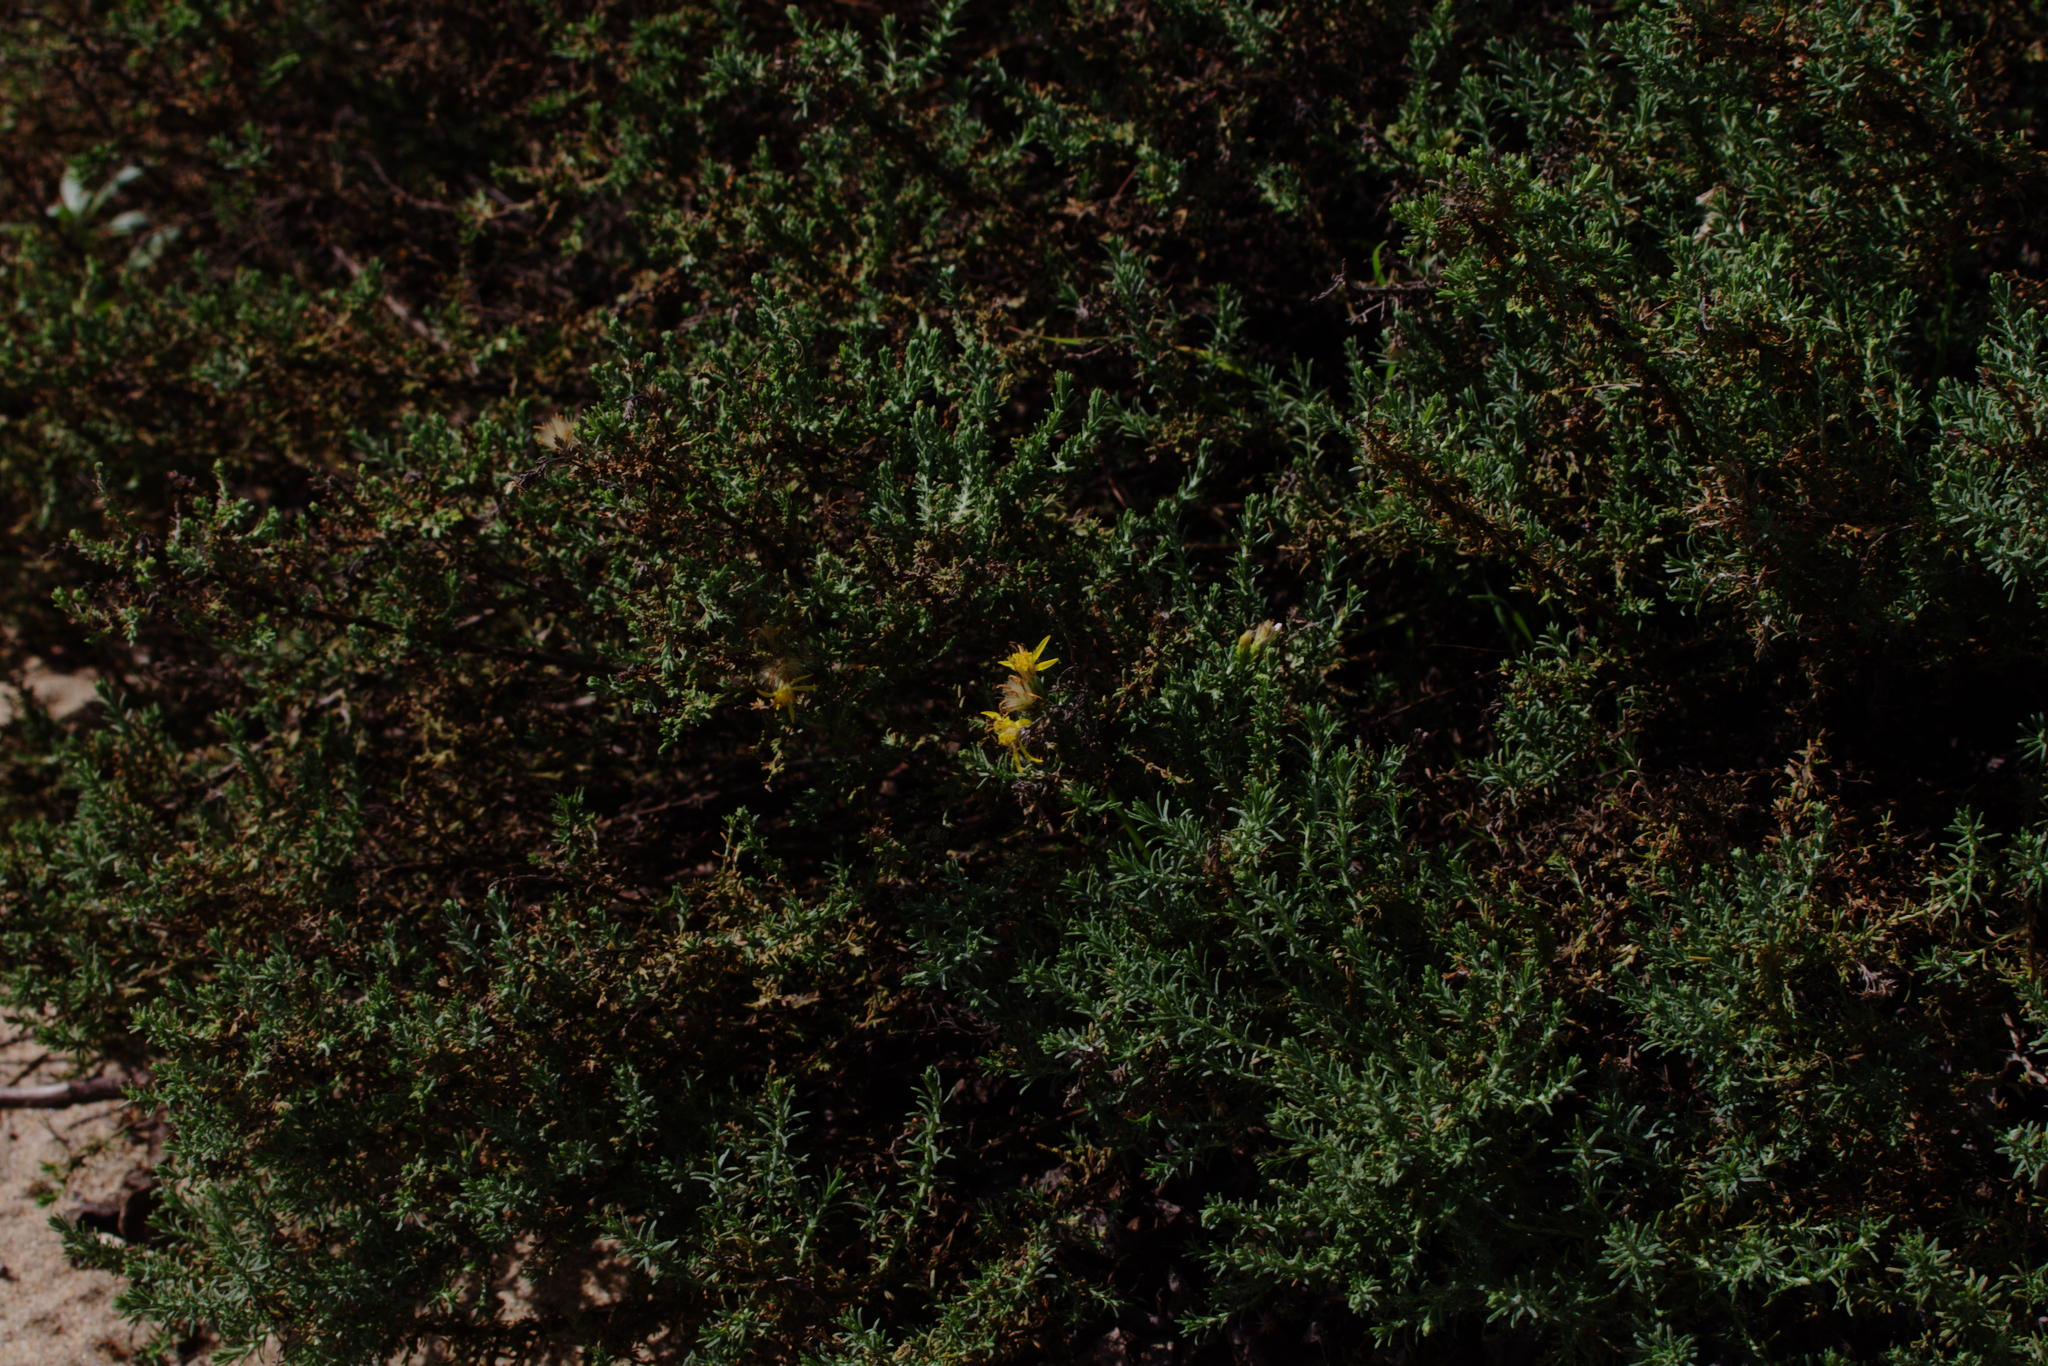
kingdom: Plantae
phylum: Tracheophyta
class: Magnoliopsida
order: Asterales
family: Asteraceae
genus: Ericameria
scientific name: Ericameria ericoides
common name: California goldenbush
